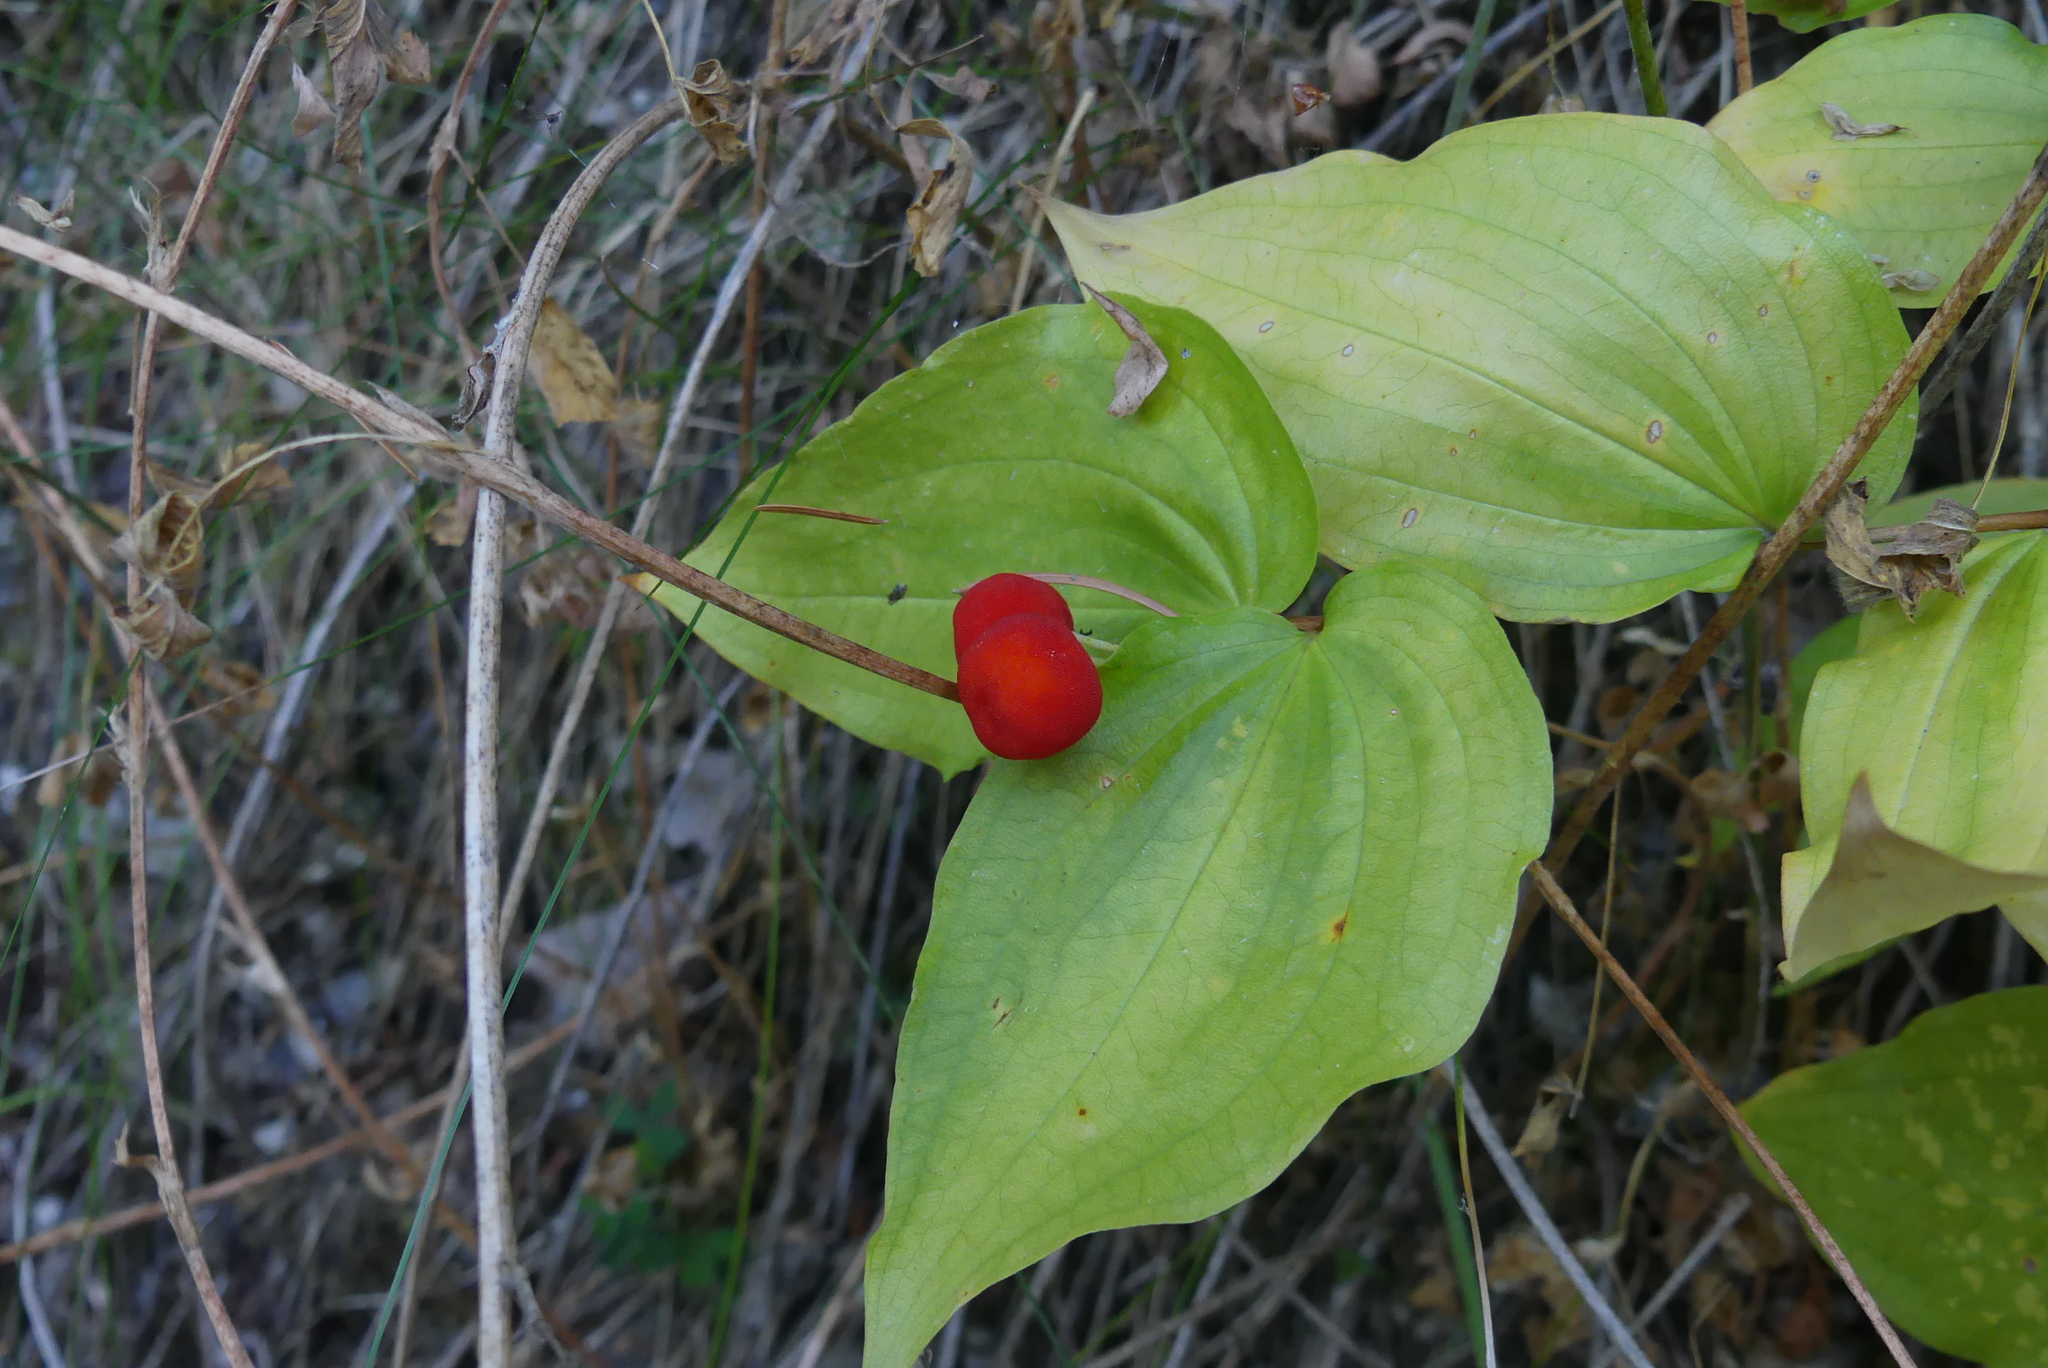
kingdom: Plantae
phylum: Tracheophyta
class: Liliopsida
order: Liliales
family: Liliaceae
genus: Prosartes
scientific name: Prosartes trachycarpa
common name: Rough-fruit fairy-bells
